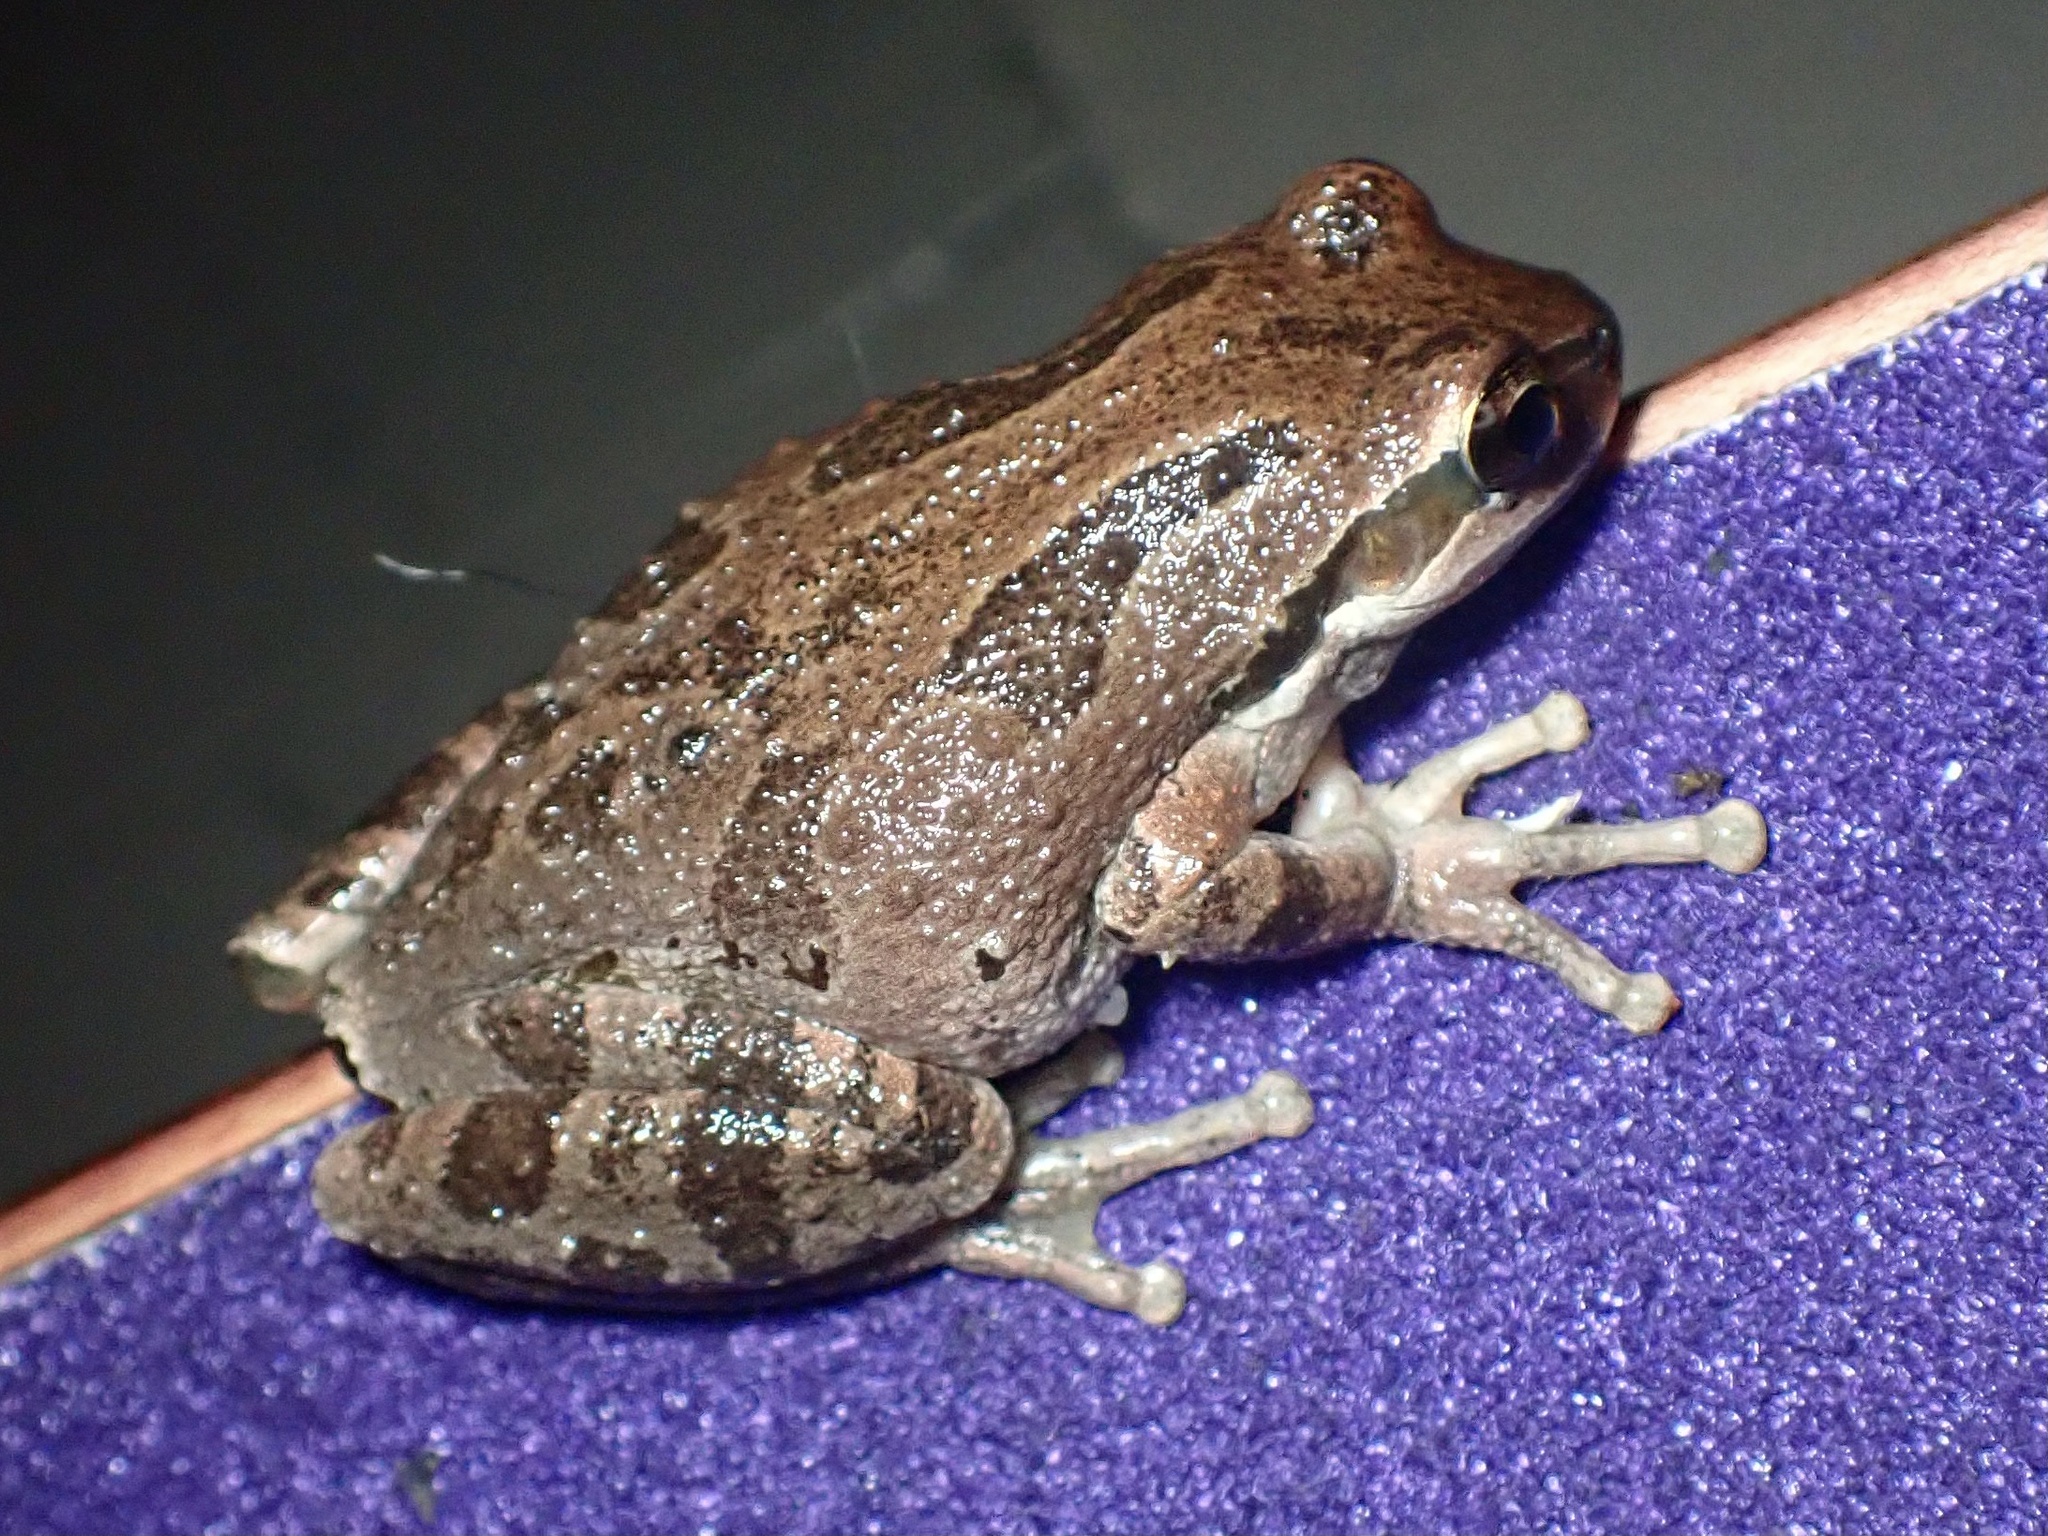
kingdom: Animalia
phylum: Chordata
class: Amphibia
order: Anura
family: Hylidae
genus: Pseudacris
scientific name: Pseudacris regilla
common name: Pacific chorus frog
